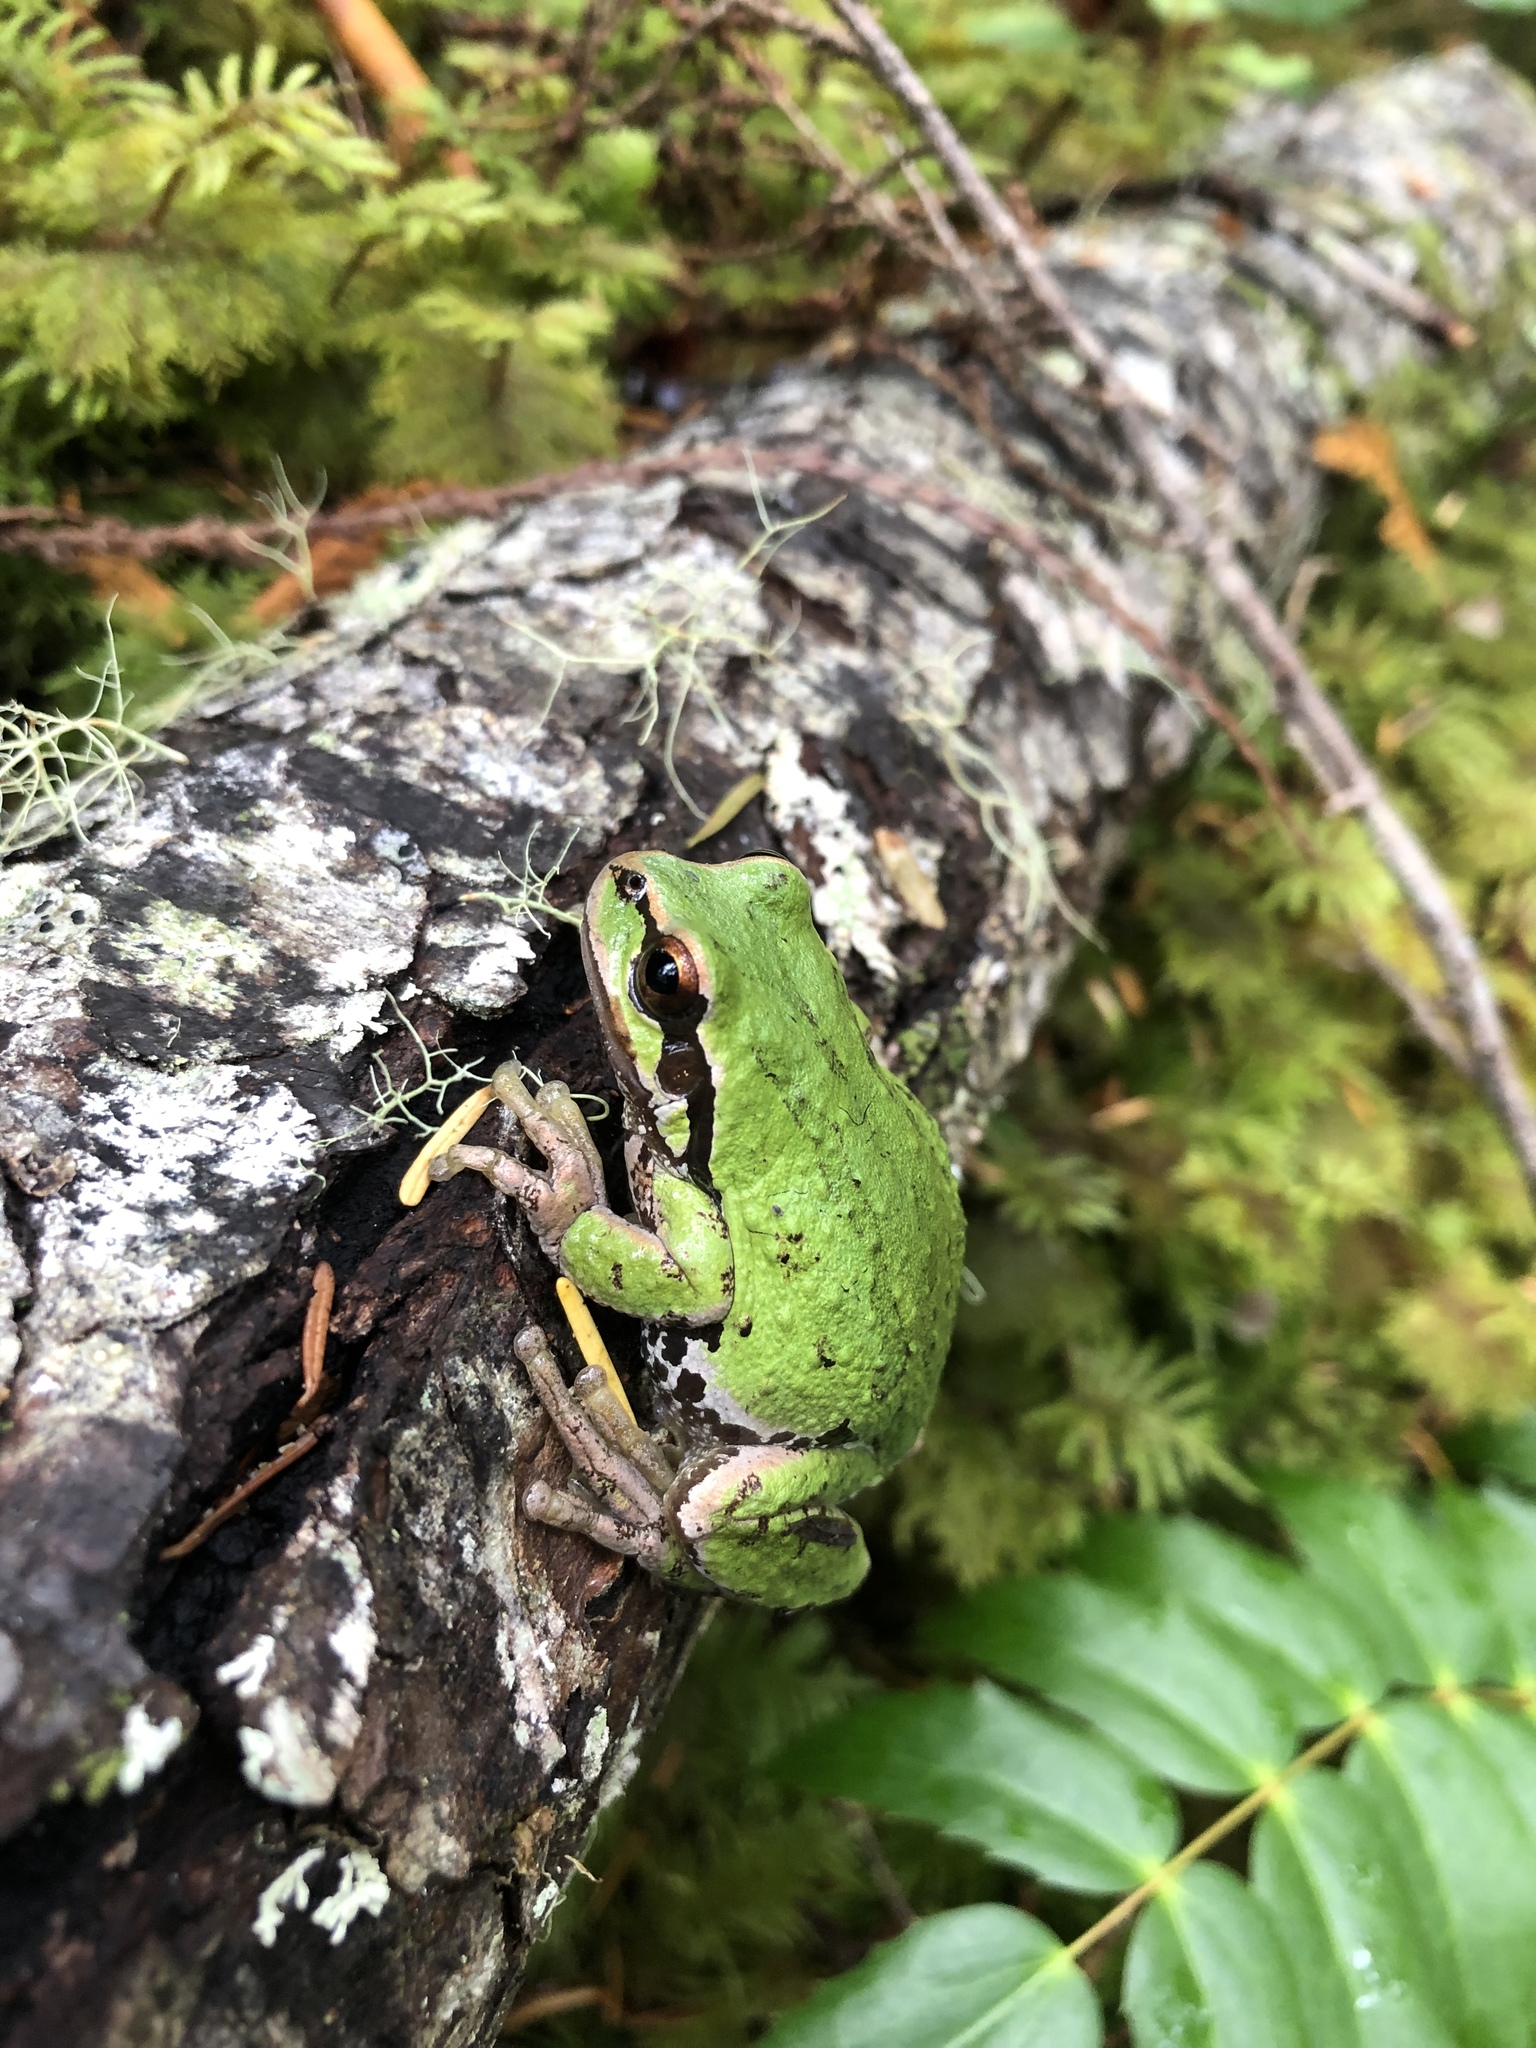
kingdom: Animalia
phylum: Chordata
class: Amphibia
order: Anura
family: Hylidae
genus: Pseudacris
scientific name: Pseudacris regilla
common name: Pacific chorus frog
